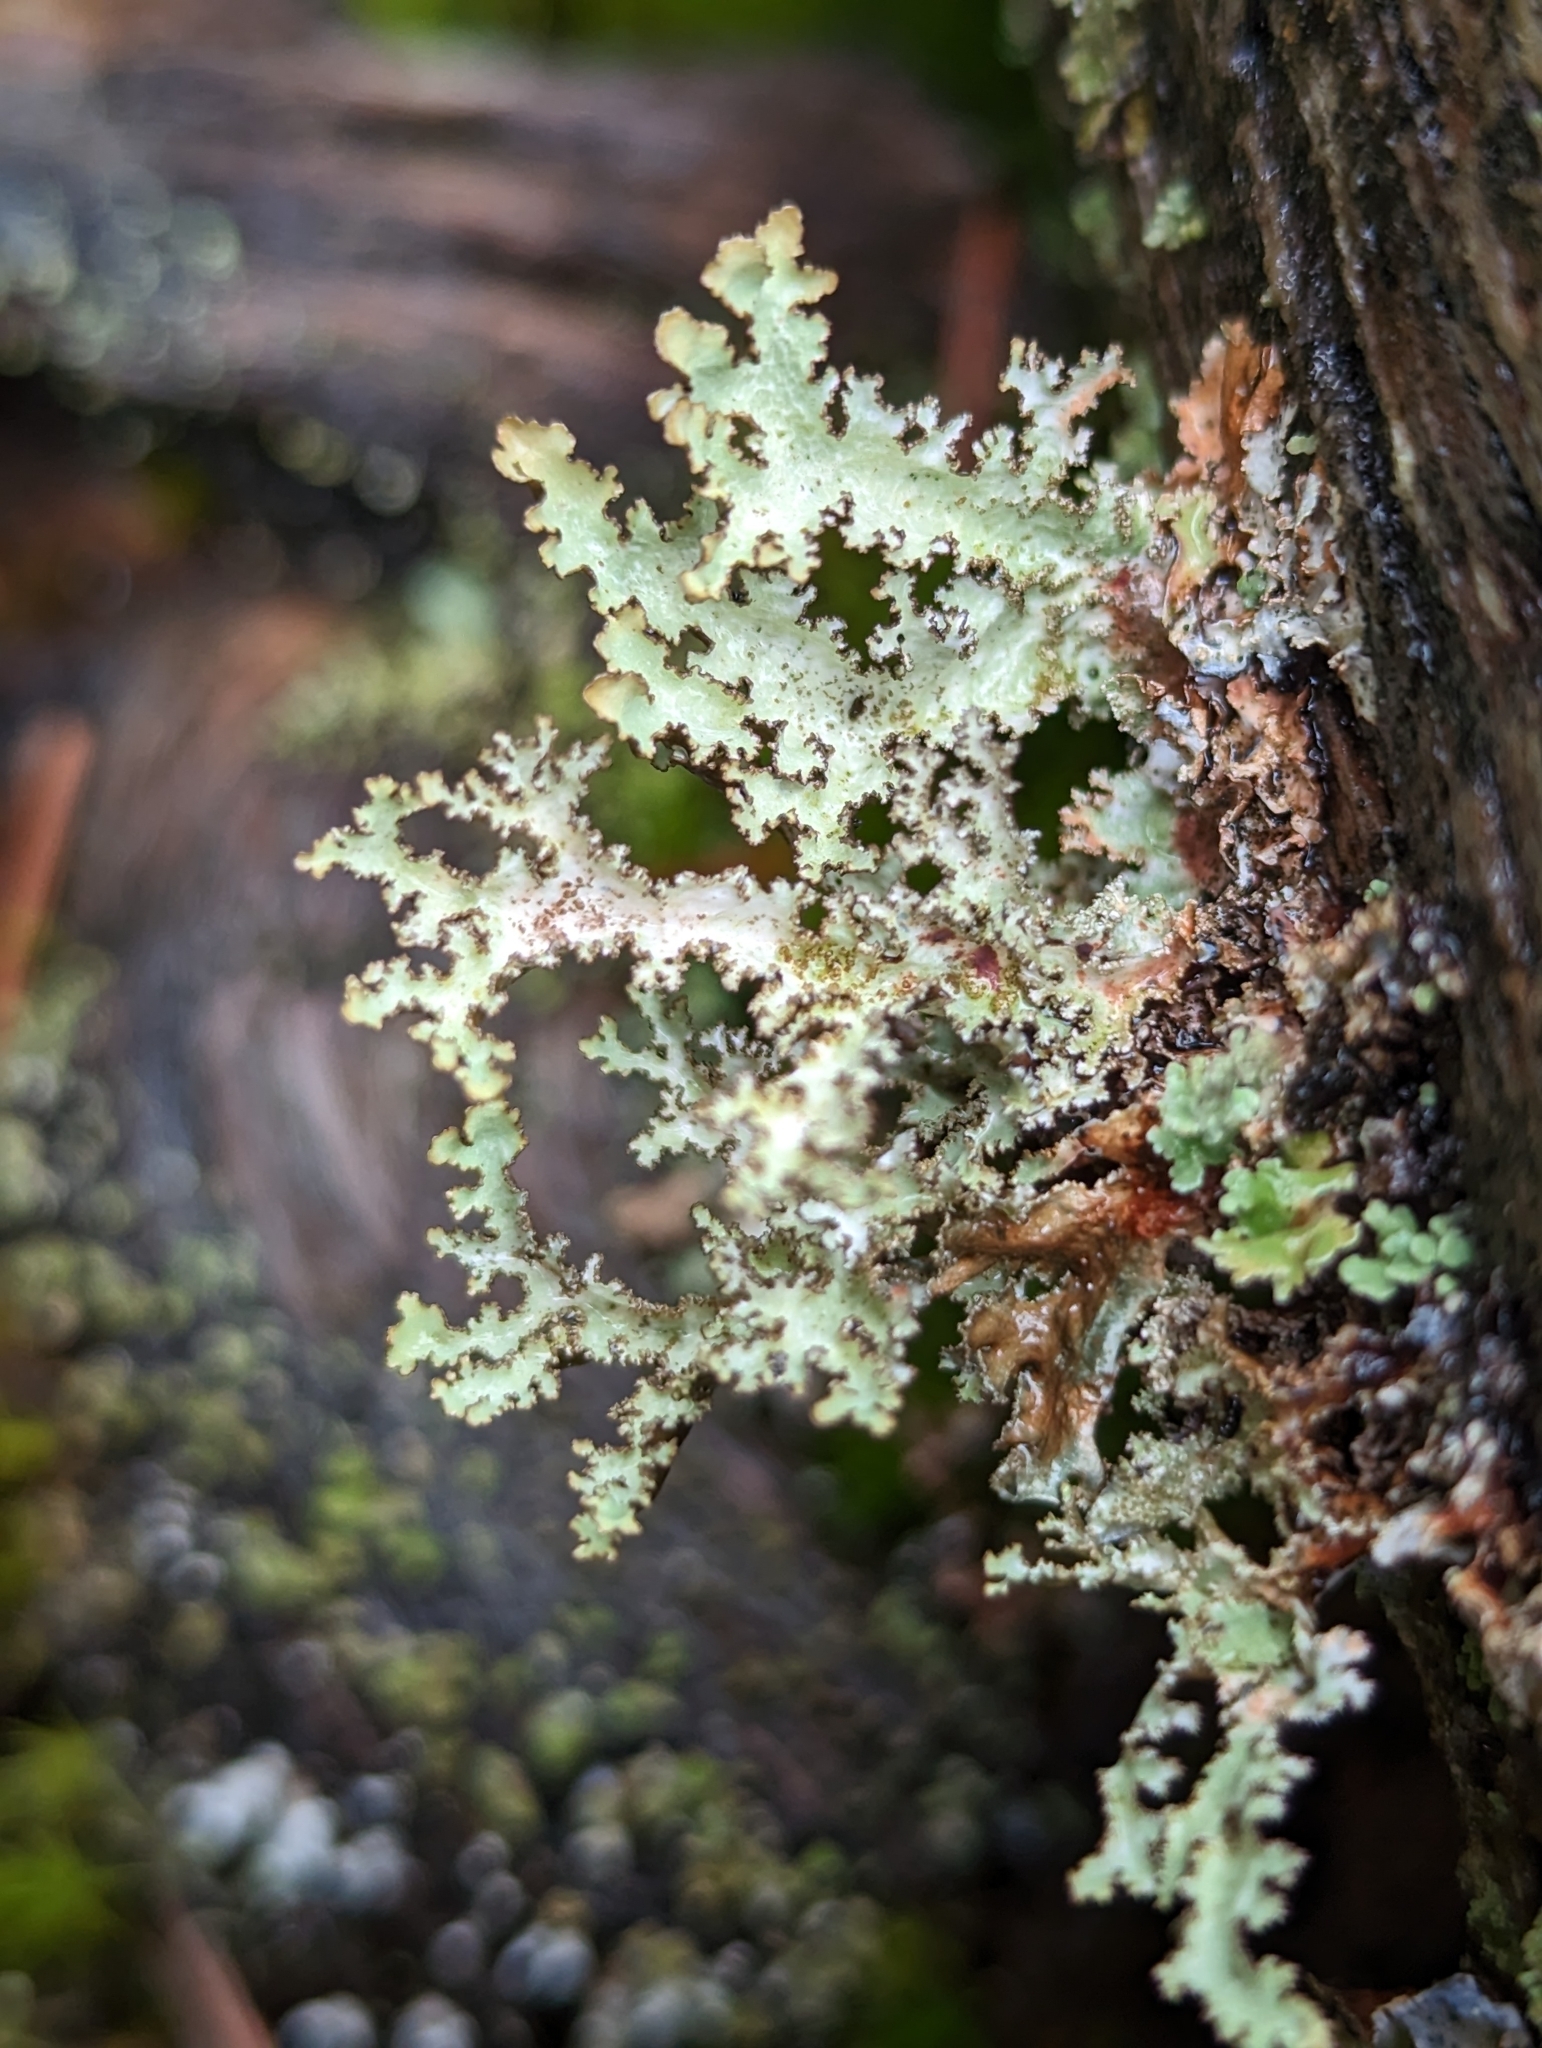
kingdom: Fungi
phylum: Ascomycota
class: Lecanoromycetes
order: Lecanorales
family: Parmeliaceae
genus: Platismatia
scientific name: Platismatia herrei
